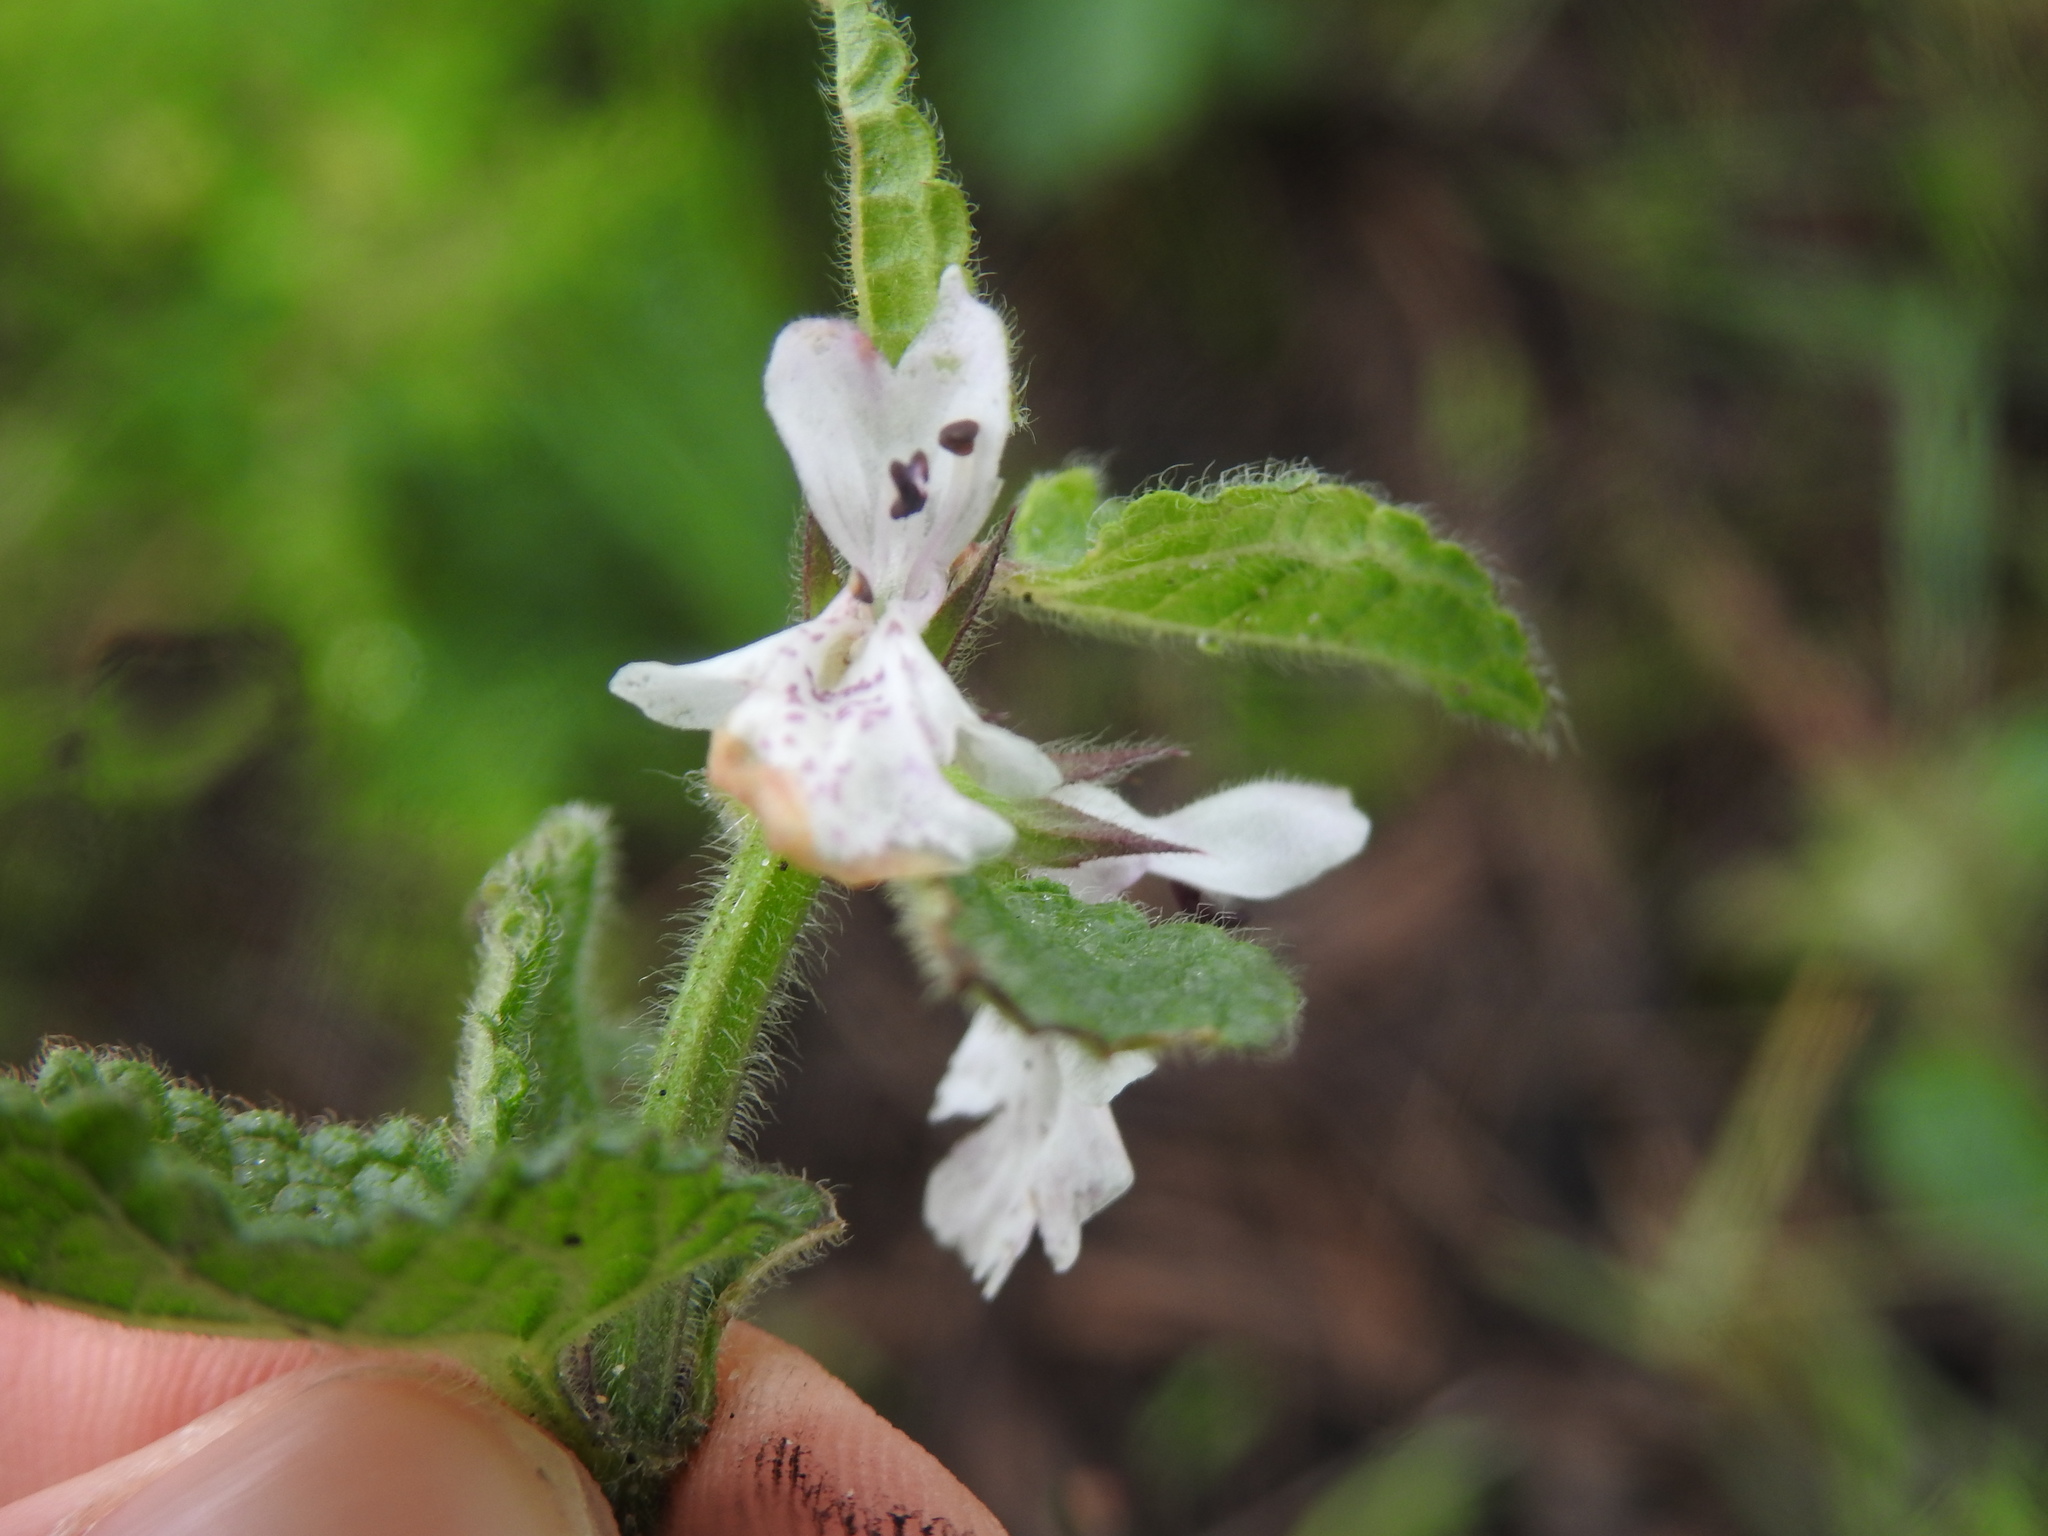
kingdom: Plantae
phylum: Tracheophyta
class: Magnoliopsida
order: Lamiales
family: Lamiaceae
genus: Stachys
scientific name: Stachys bolusii
